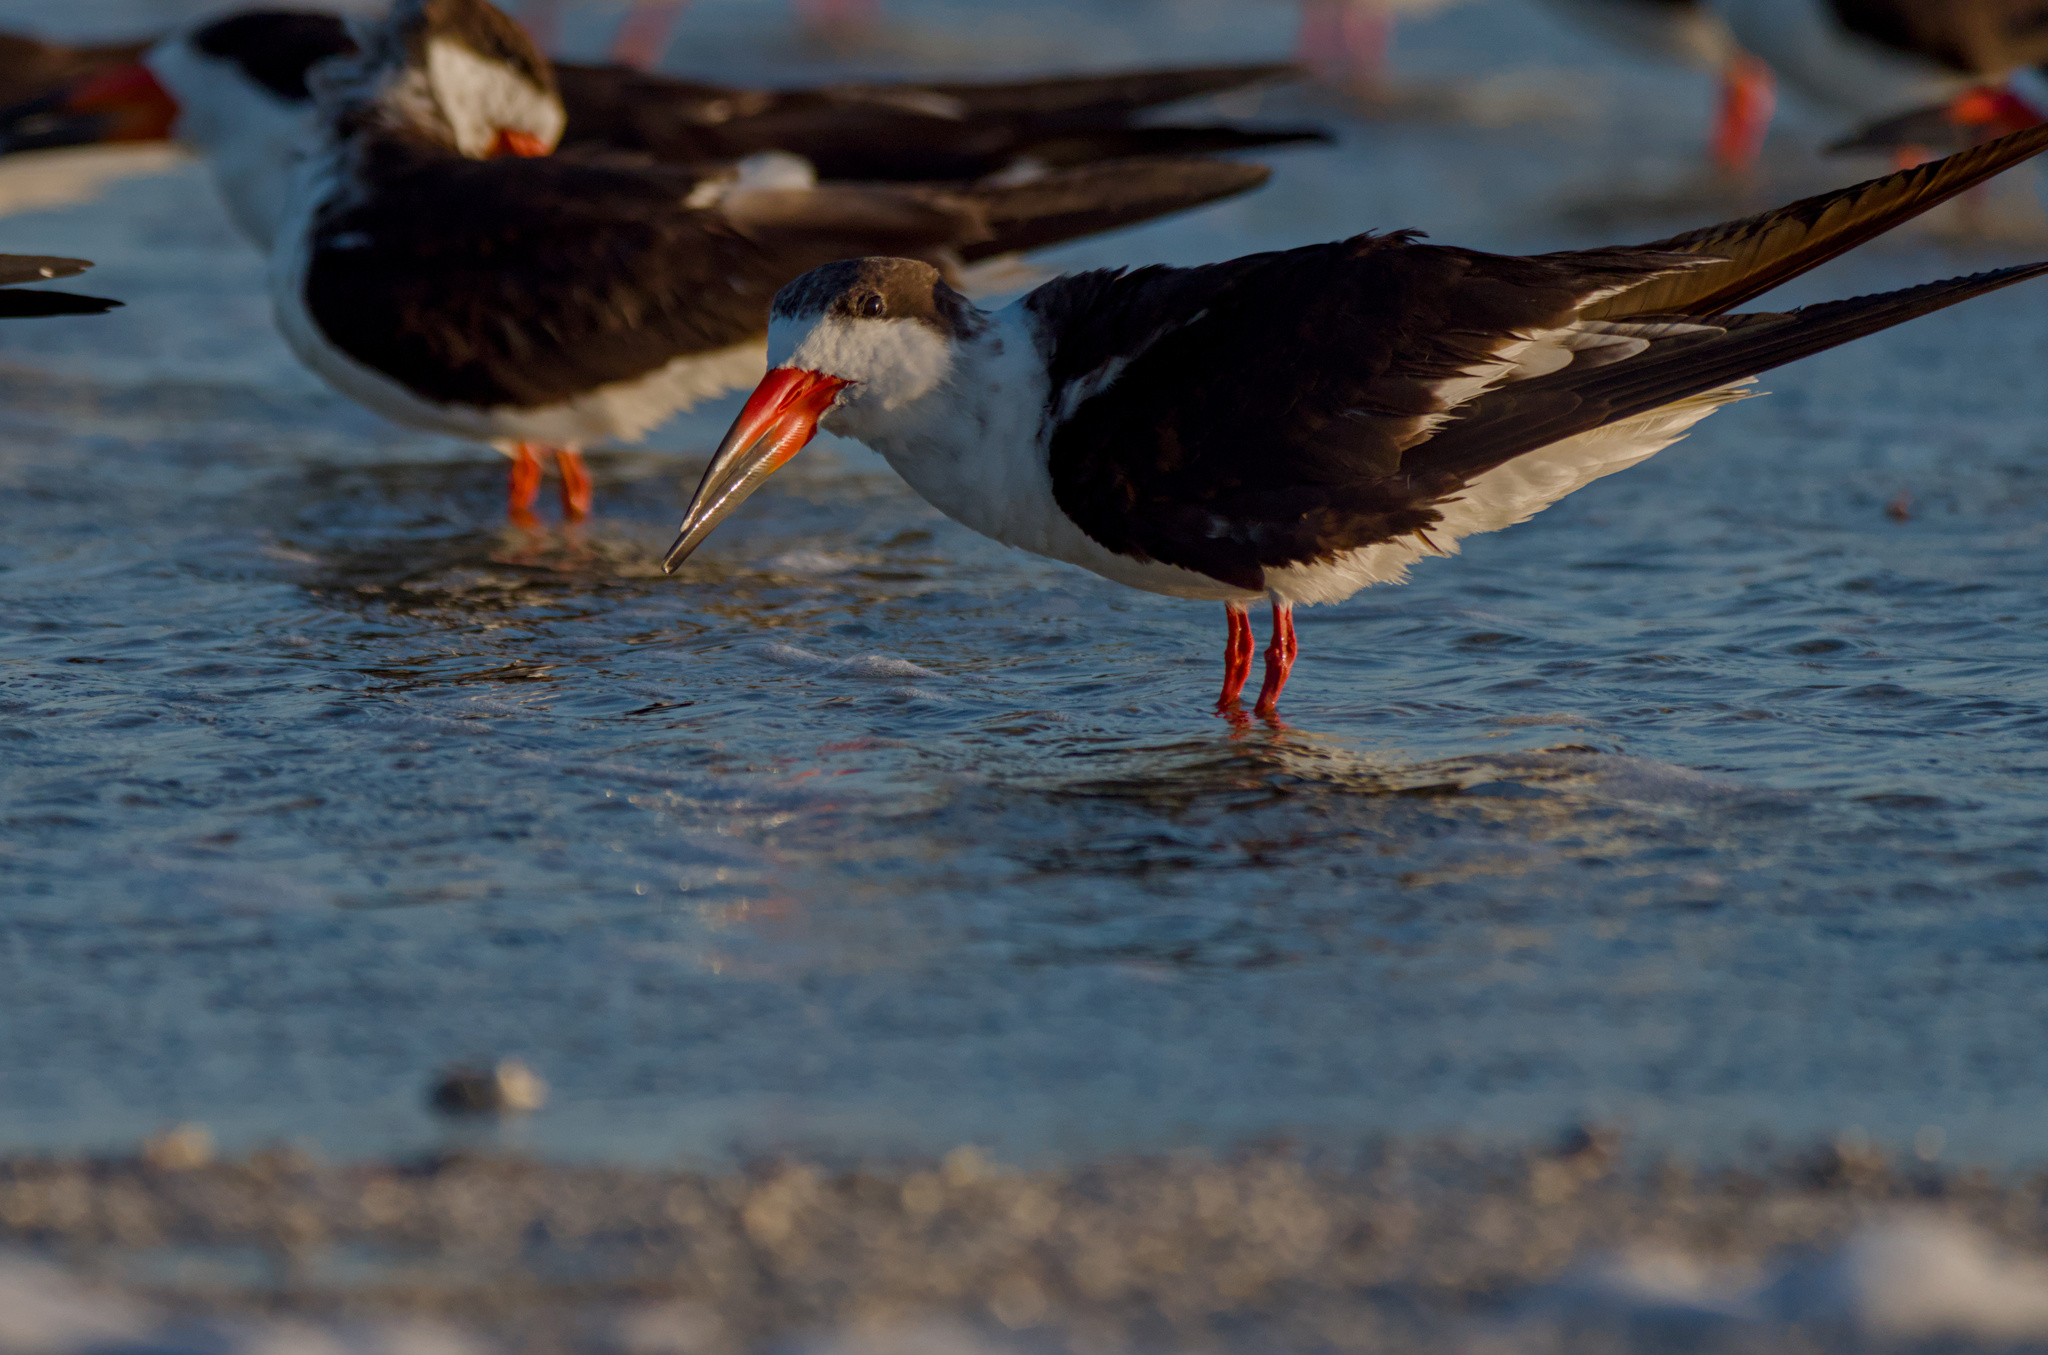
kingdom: Animalia
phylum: Chordata
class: Aves
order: Charadriiformes
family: Laridae
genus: Rynchops
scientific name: Rynchops niger
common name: Black skimmer
